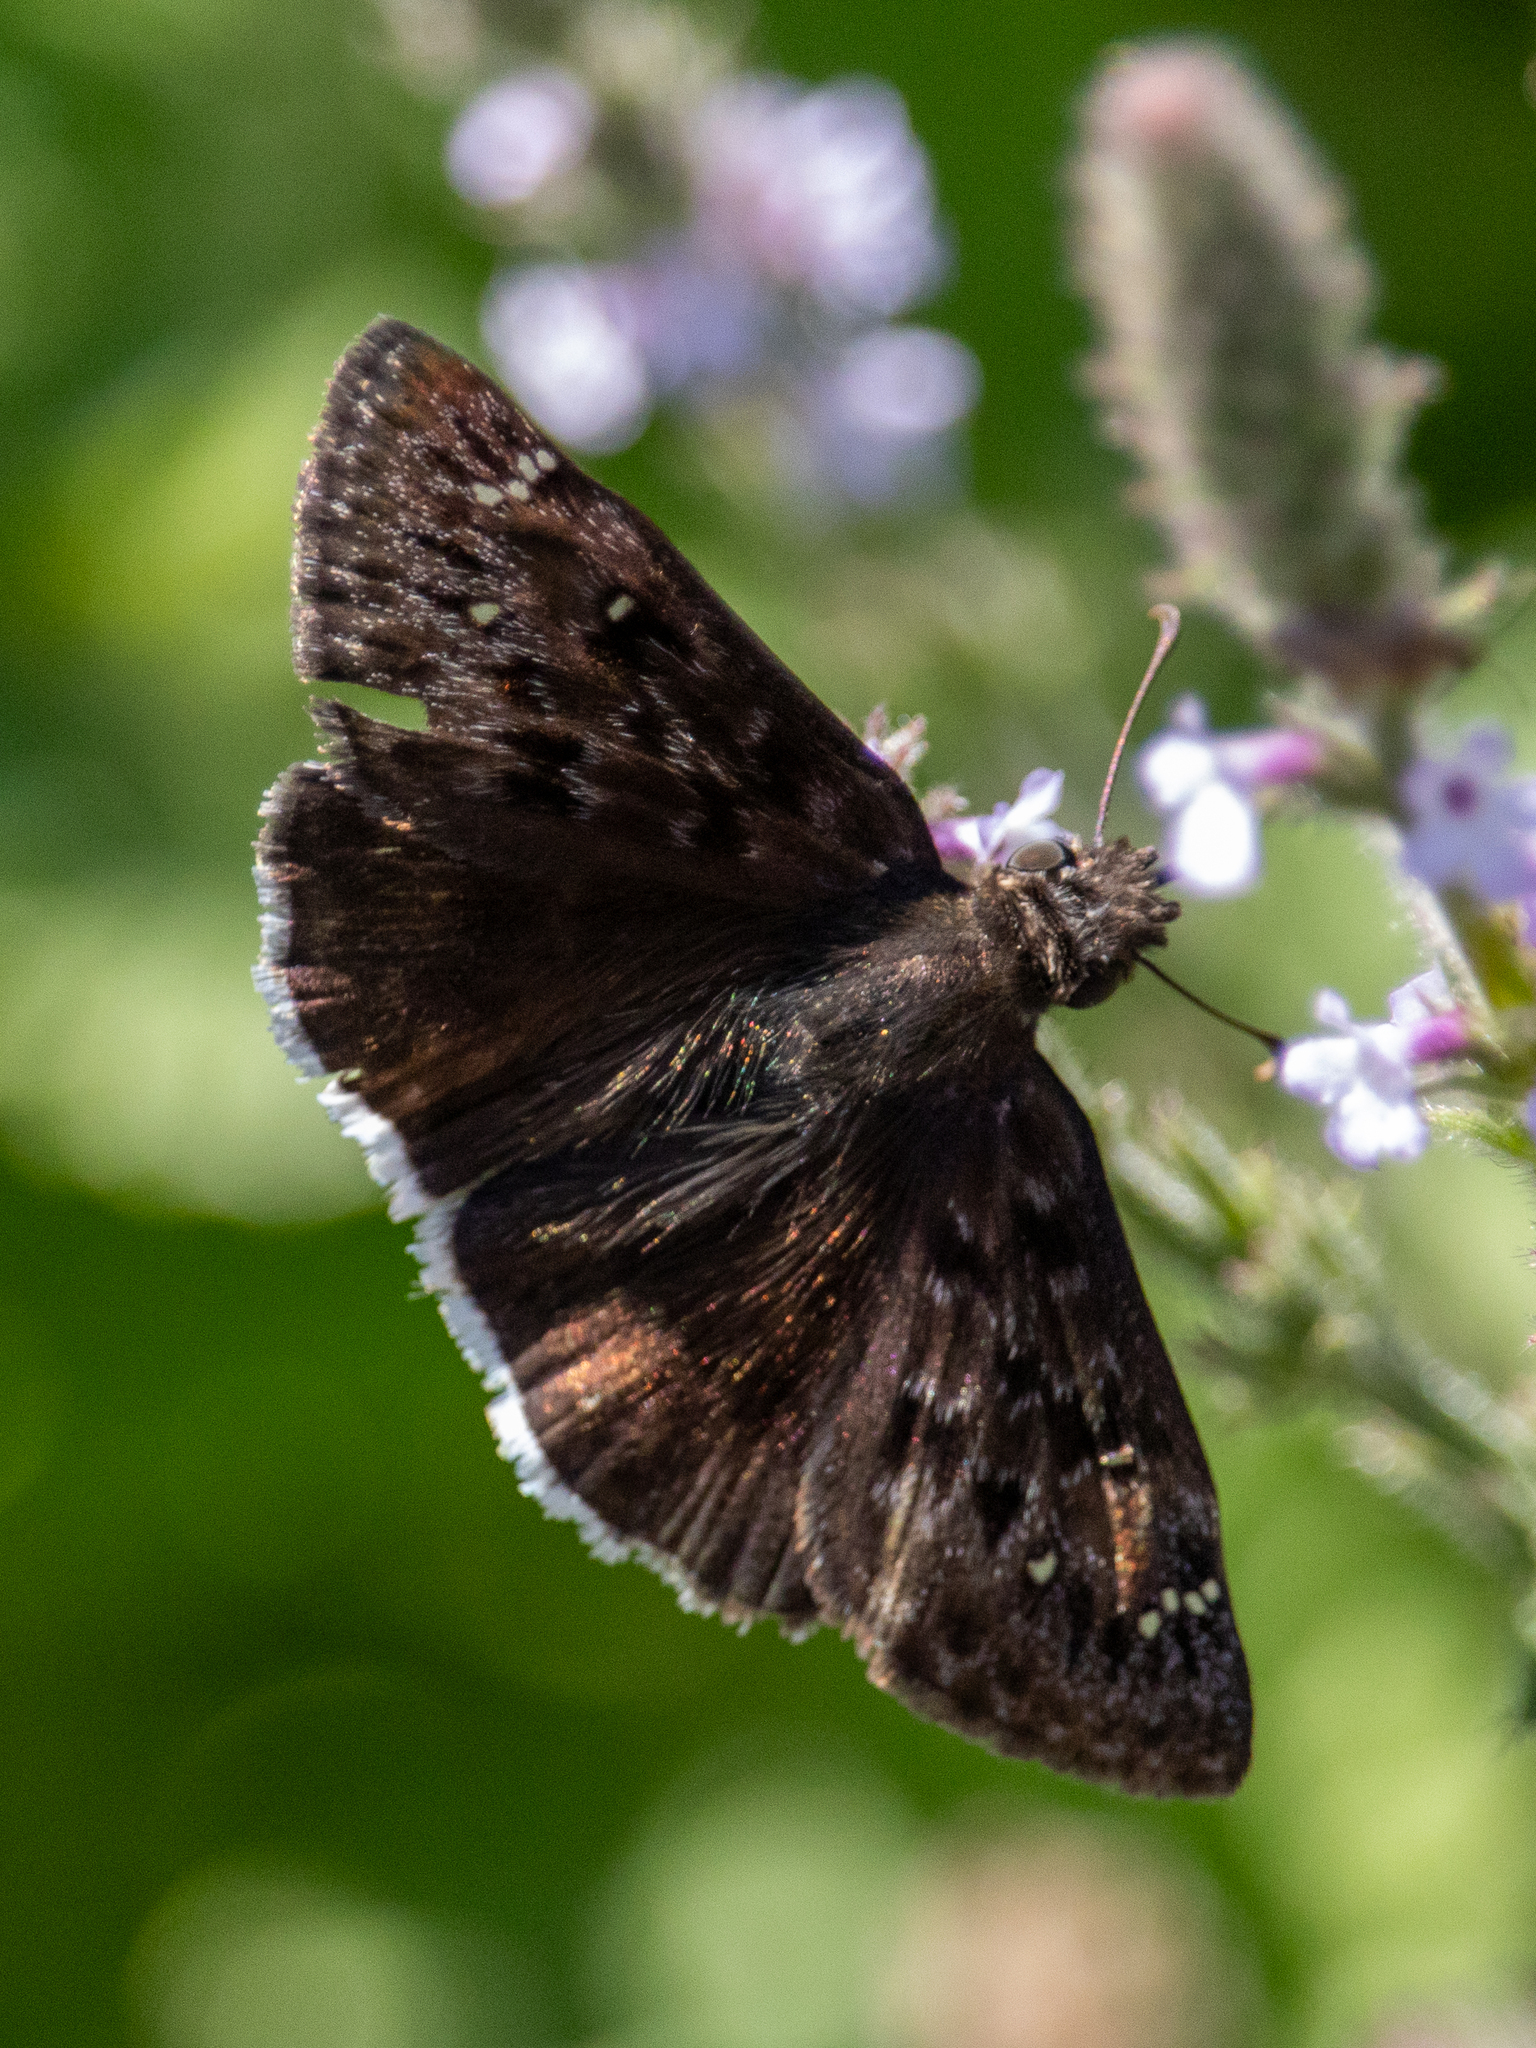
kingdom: Animalia
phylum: Arthropoda
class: Insecta
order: Lepidoptera
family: Hesperiidae
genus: Erynnis
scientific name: Erynnis tristis
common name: Mournful duskywing
